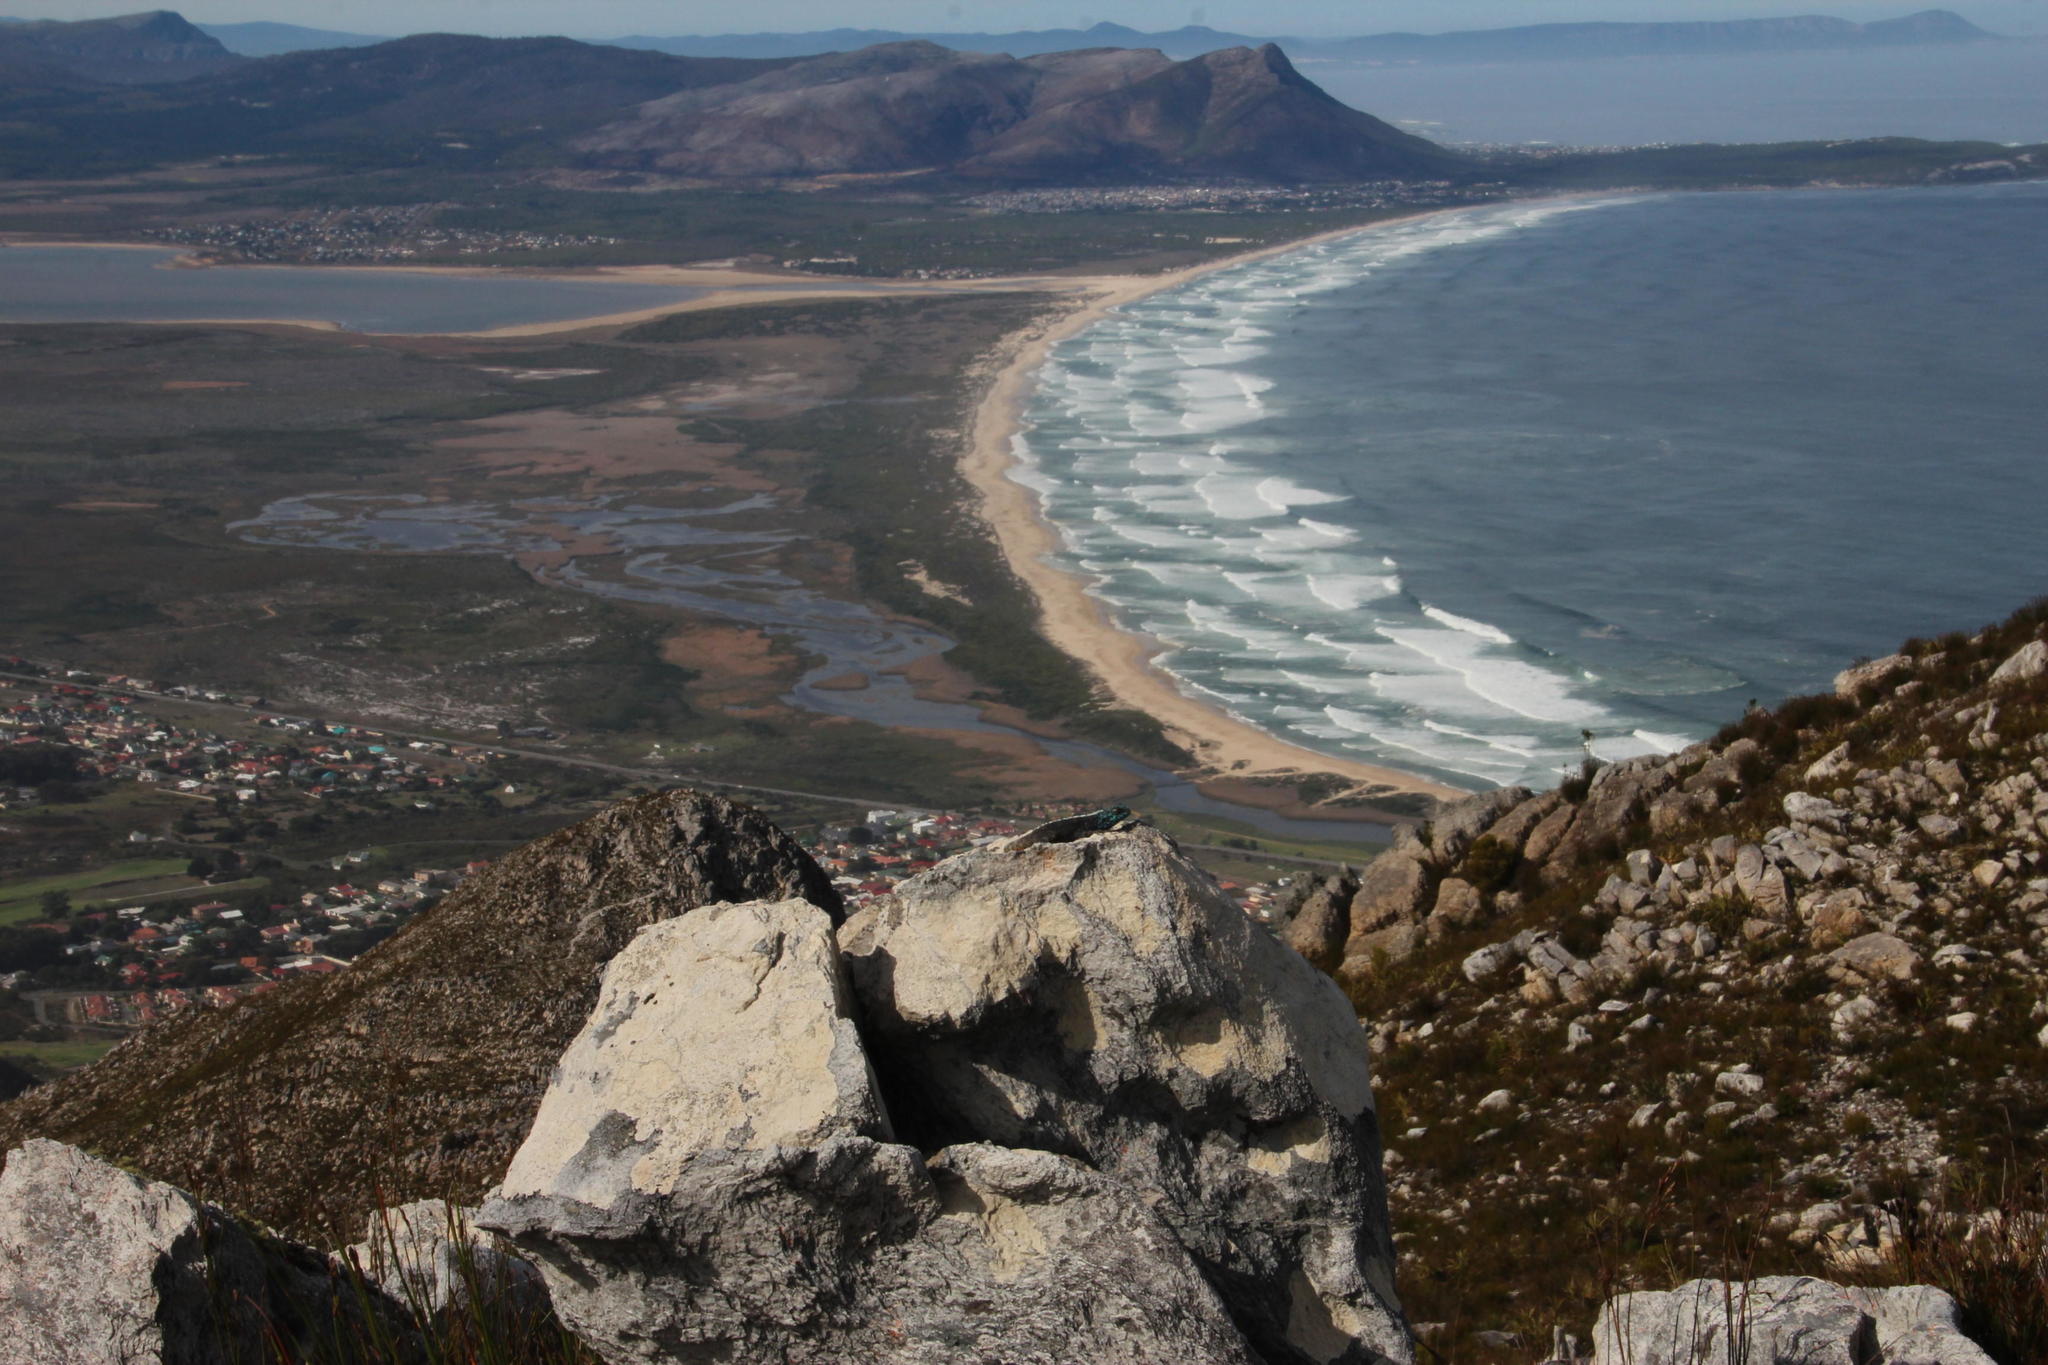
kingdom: Animalia
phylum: Chordata
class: Squamata
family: Agamidae
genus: Agama
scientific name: Agama atra
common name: Southern african rock agama
